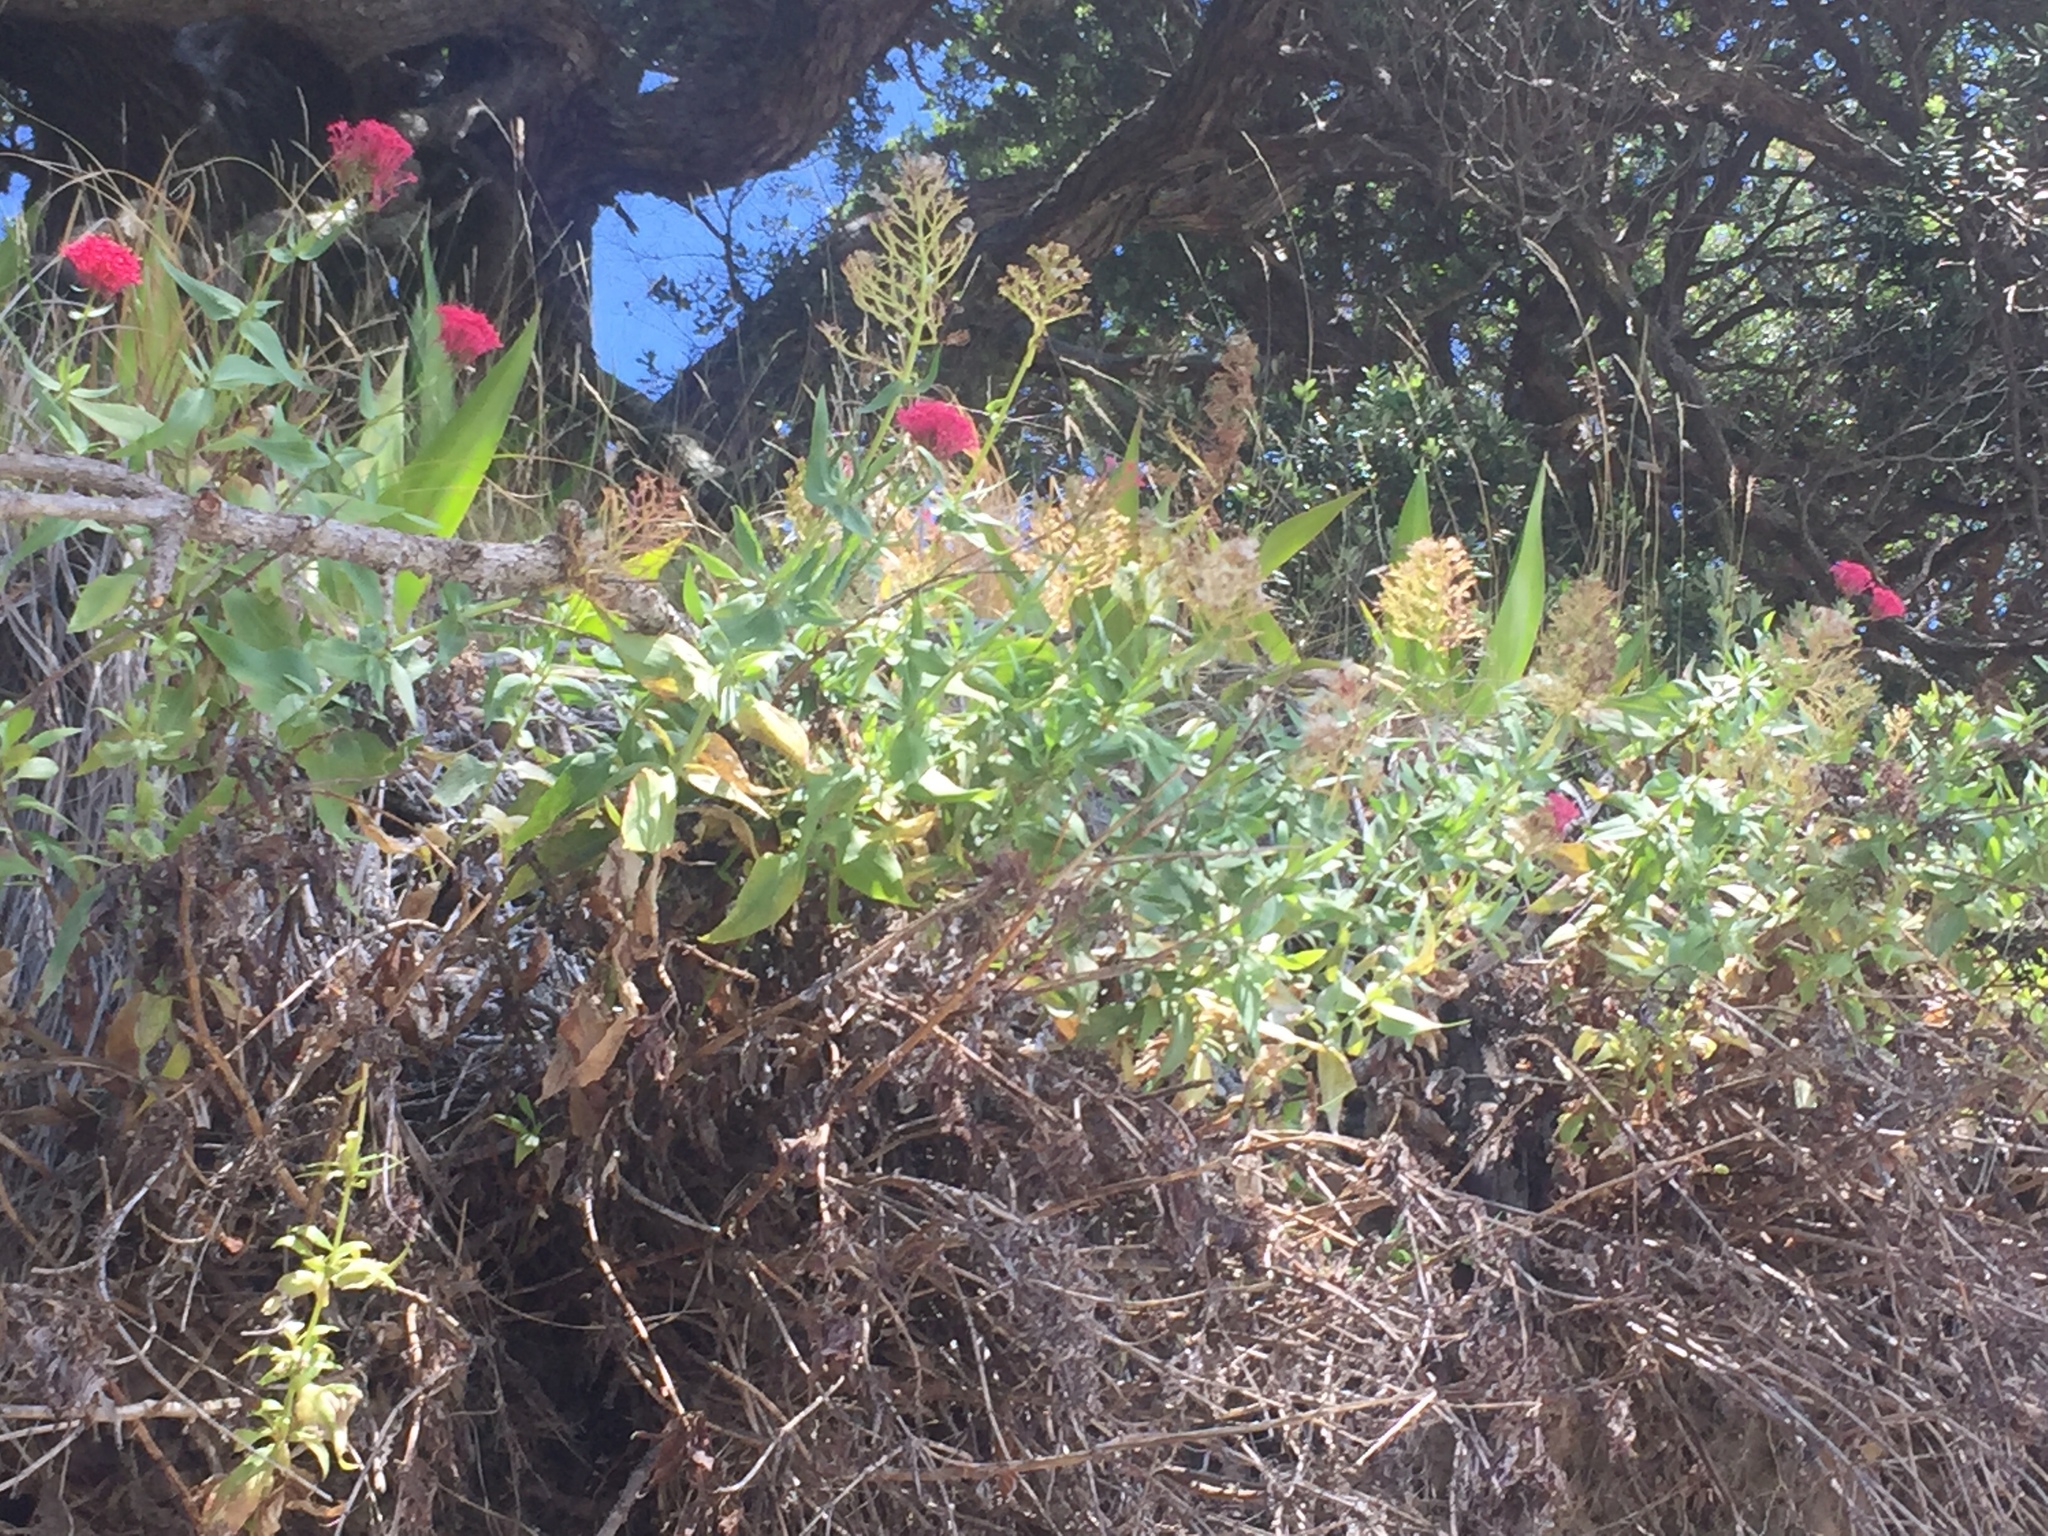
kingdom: Plantae
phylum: Tracheophyta
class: Magnoliopsida
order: Dipsacales
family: Caprifoliaceae
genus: Centranthus
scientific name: Centranthus ruber
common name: Red valerian
